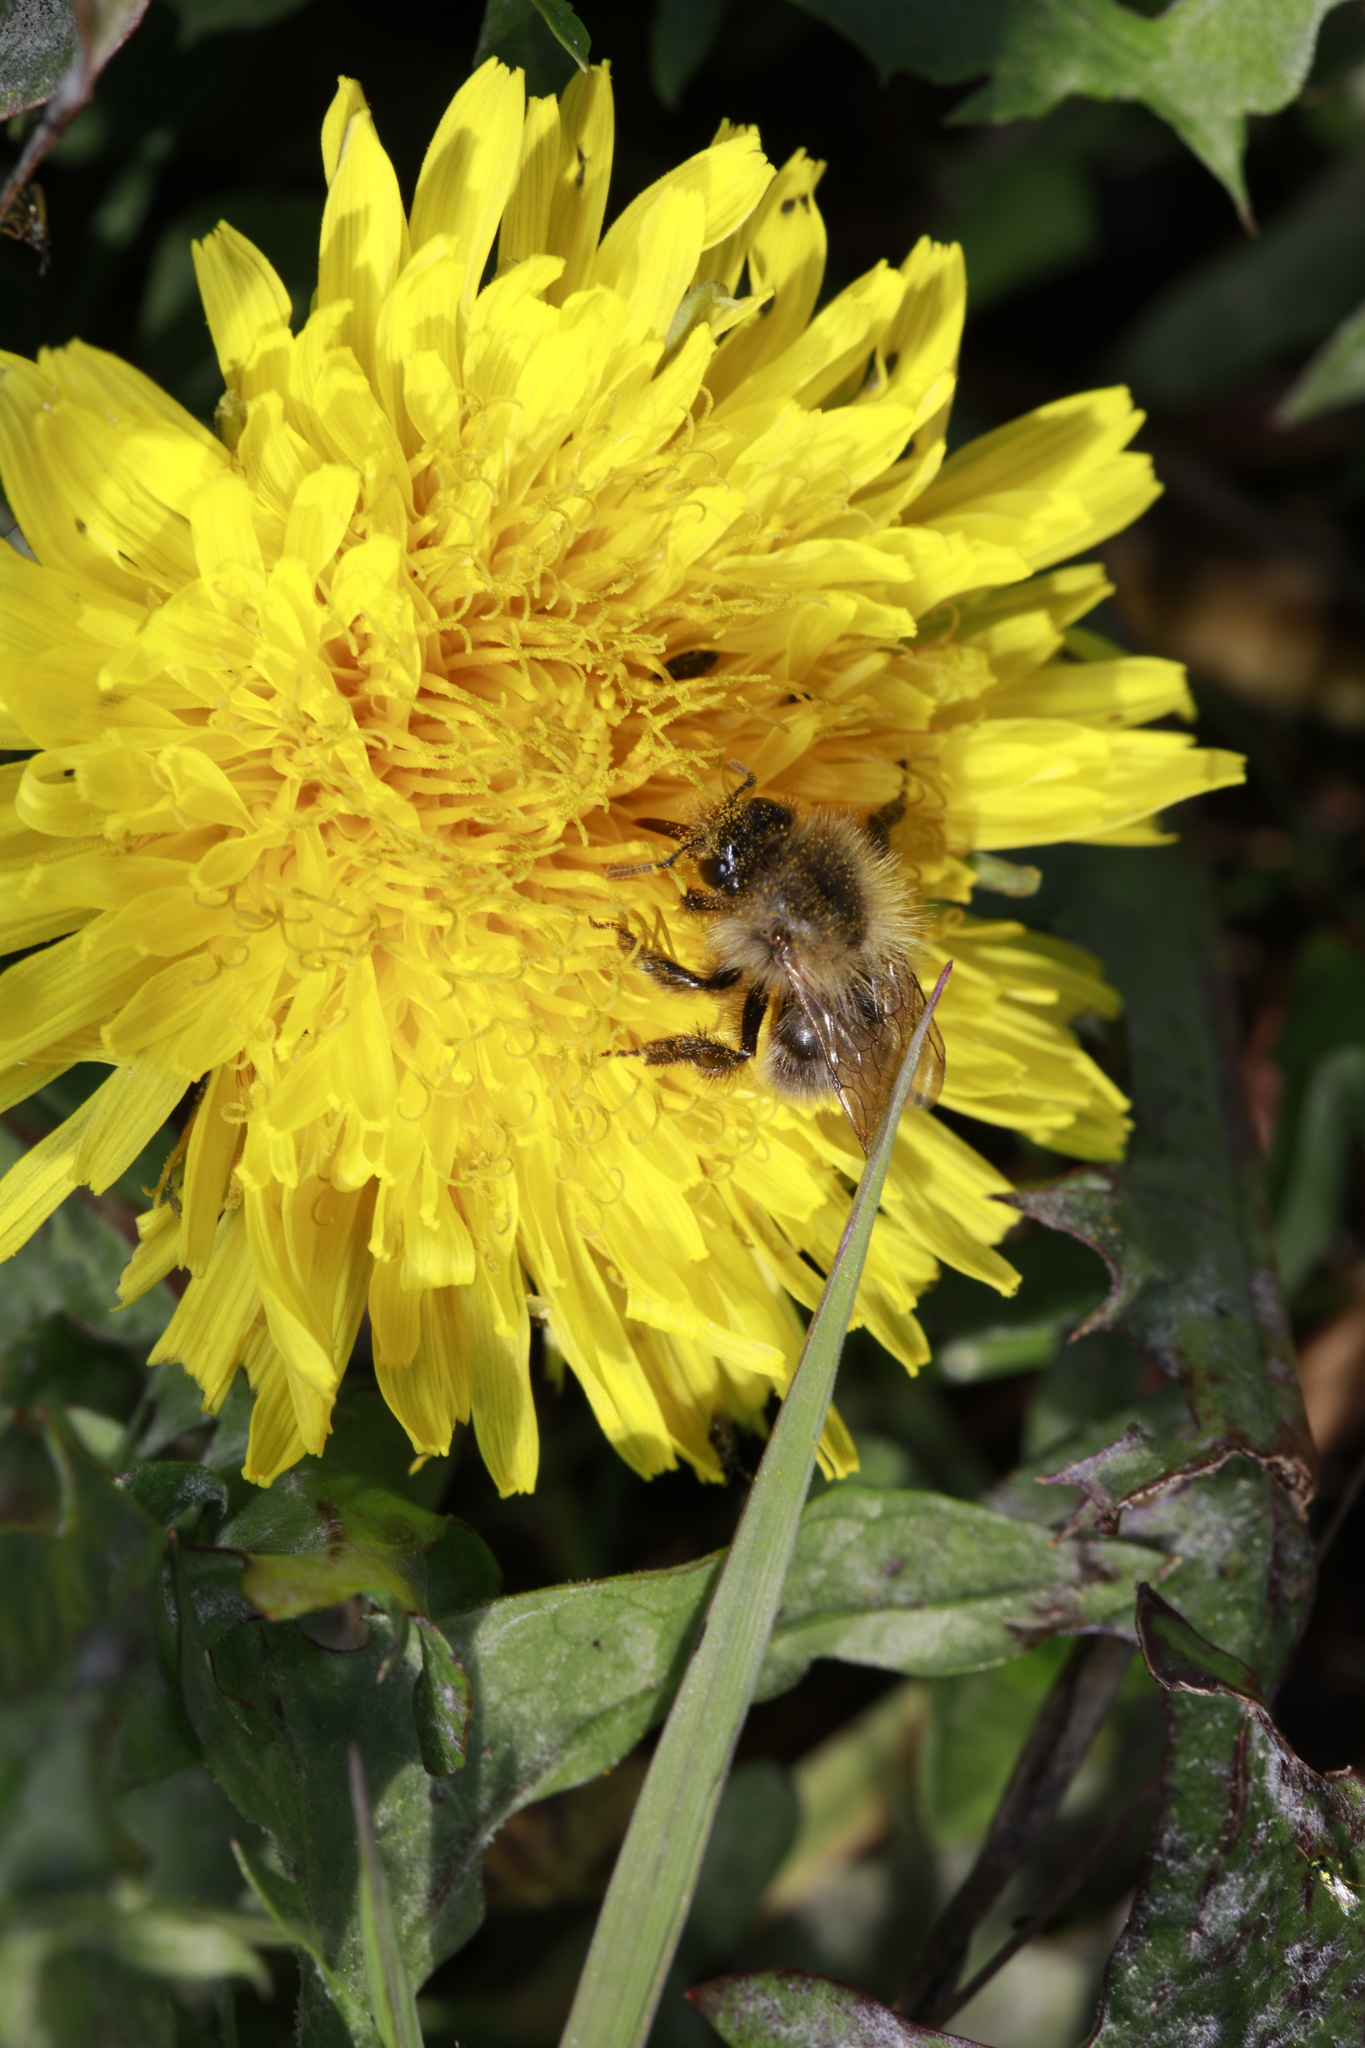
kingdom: Plantae
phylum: Tracheophyta
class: Magnoliopsida
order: Asterales
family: Asteraceae
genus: Taraxacum
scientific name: Taraxacum officinale
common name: Common dandelion
